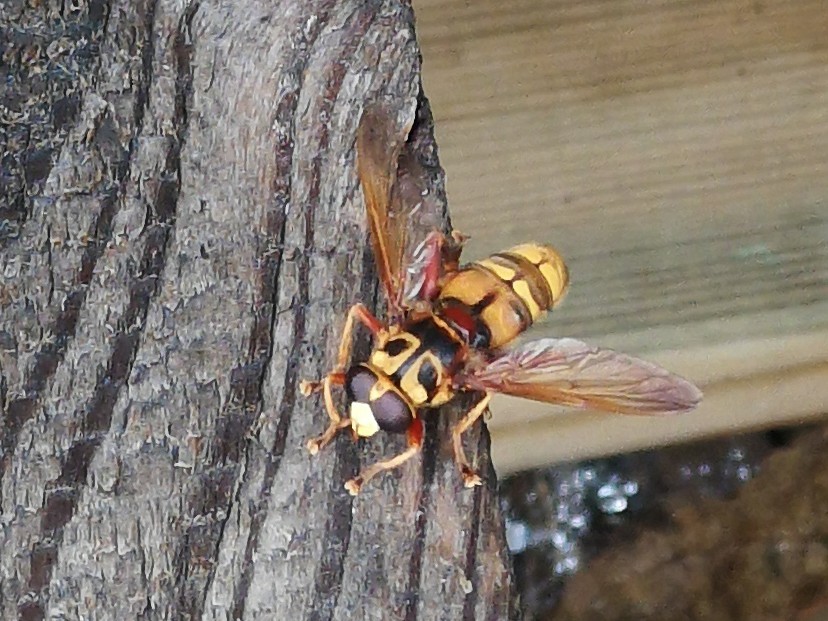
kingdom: Animalia
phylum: Arthropoda
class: Insecta
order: Diptera
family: Syrphidae
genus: Milesia
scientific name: Milesia crabroniformis
